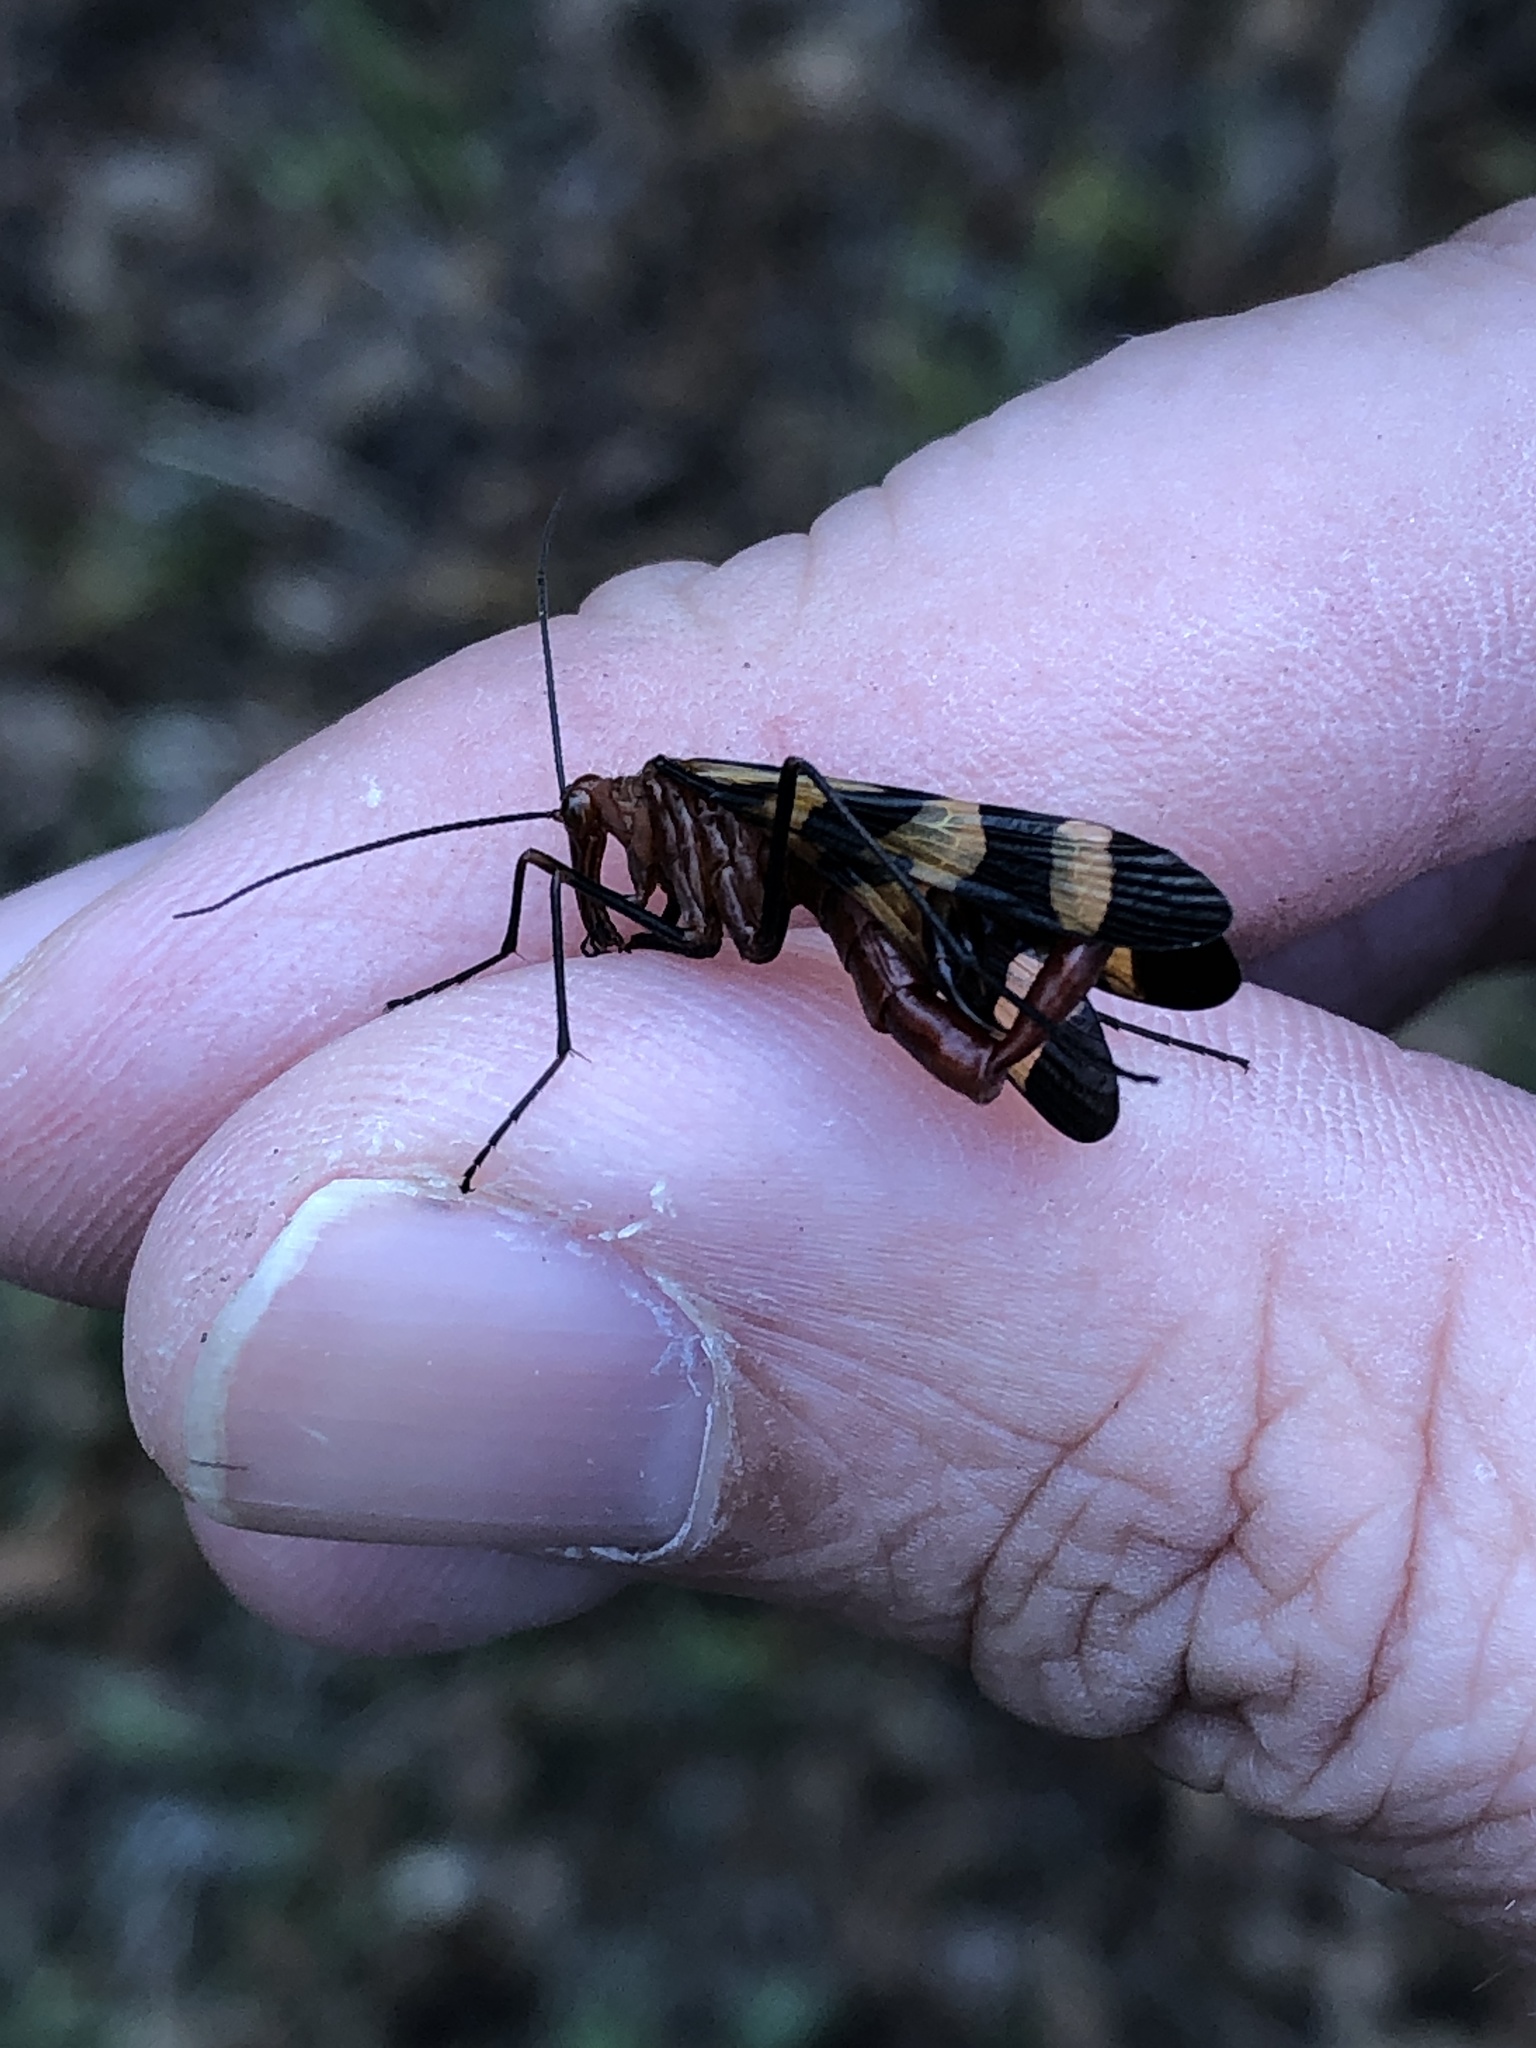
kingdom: Animalia
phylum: Arthropoda
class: Insecta
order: Mecoptera
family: Panorpidae
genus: Panorpa
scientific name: Panorpa nuptialis
